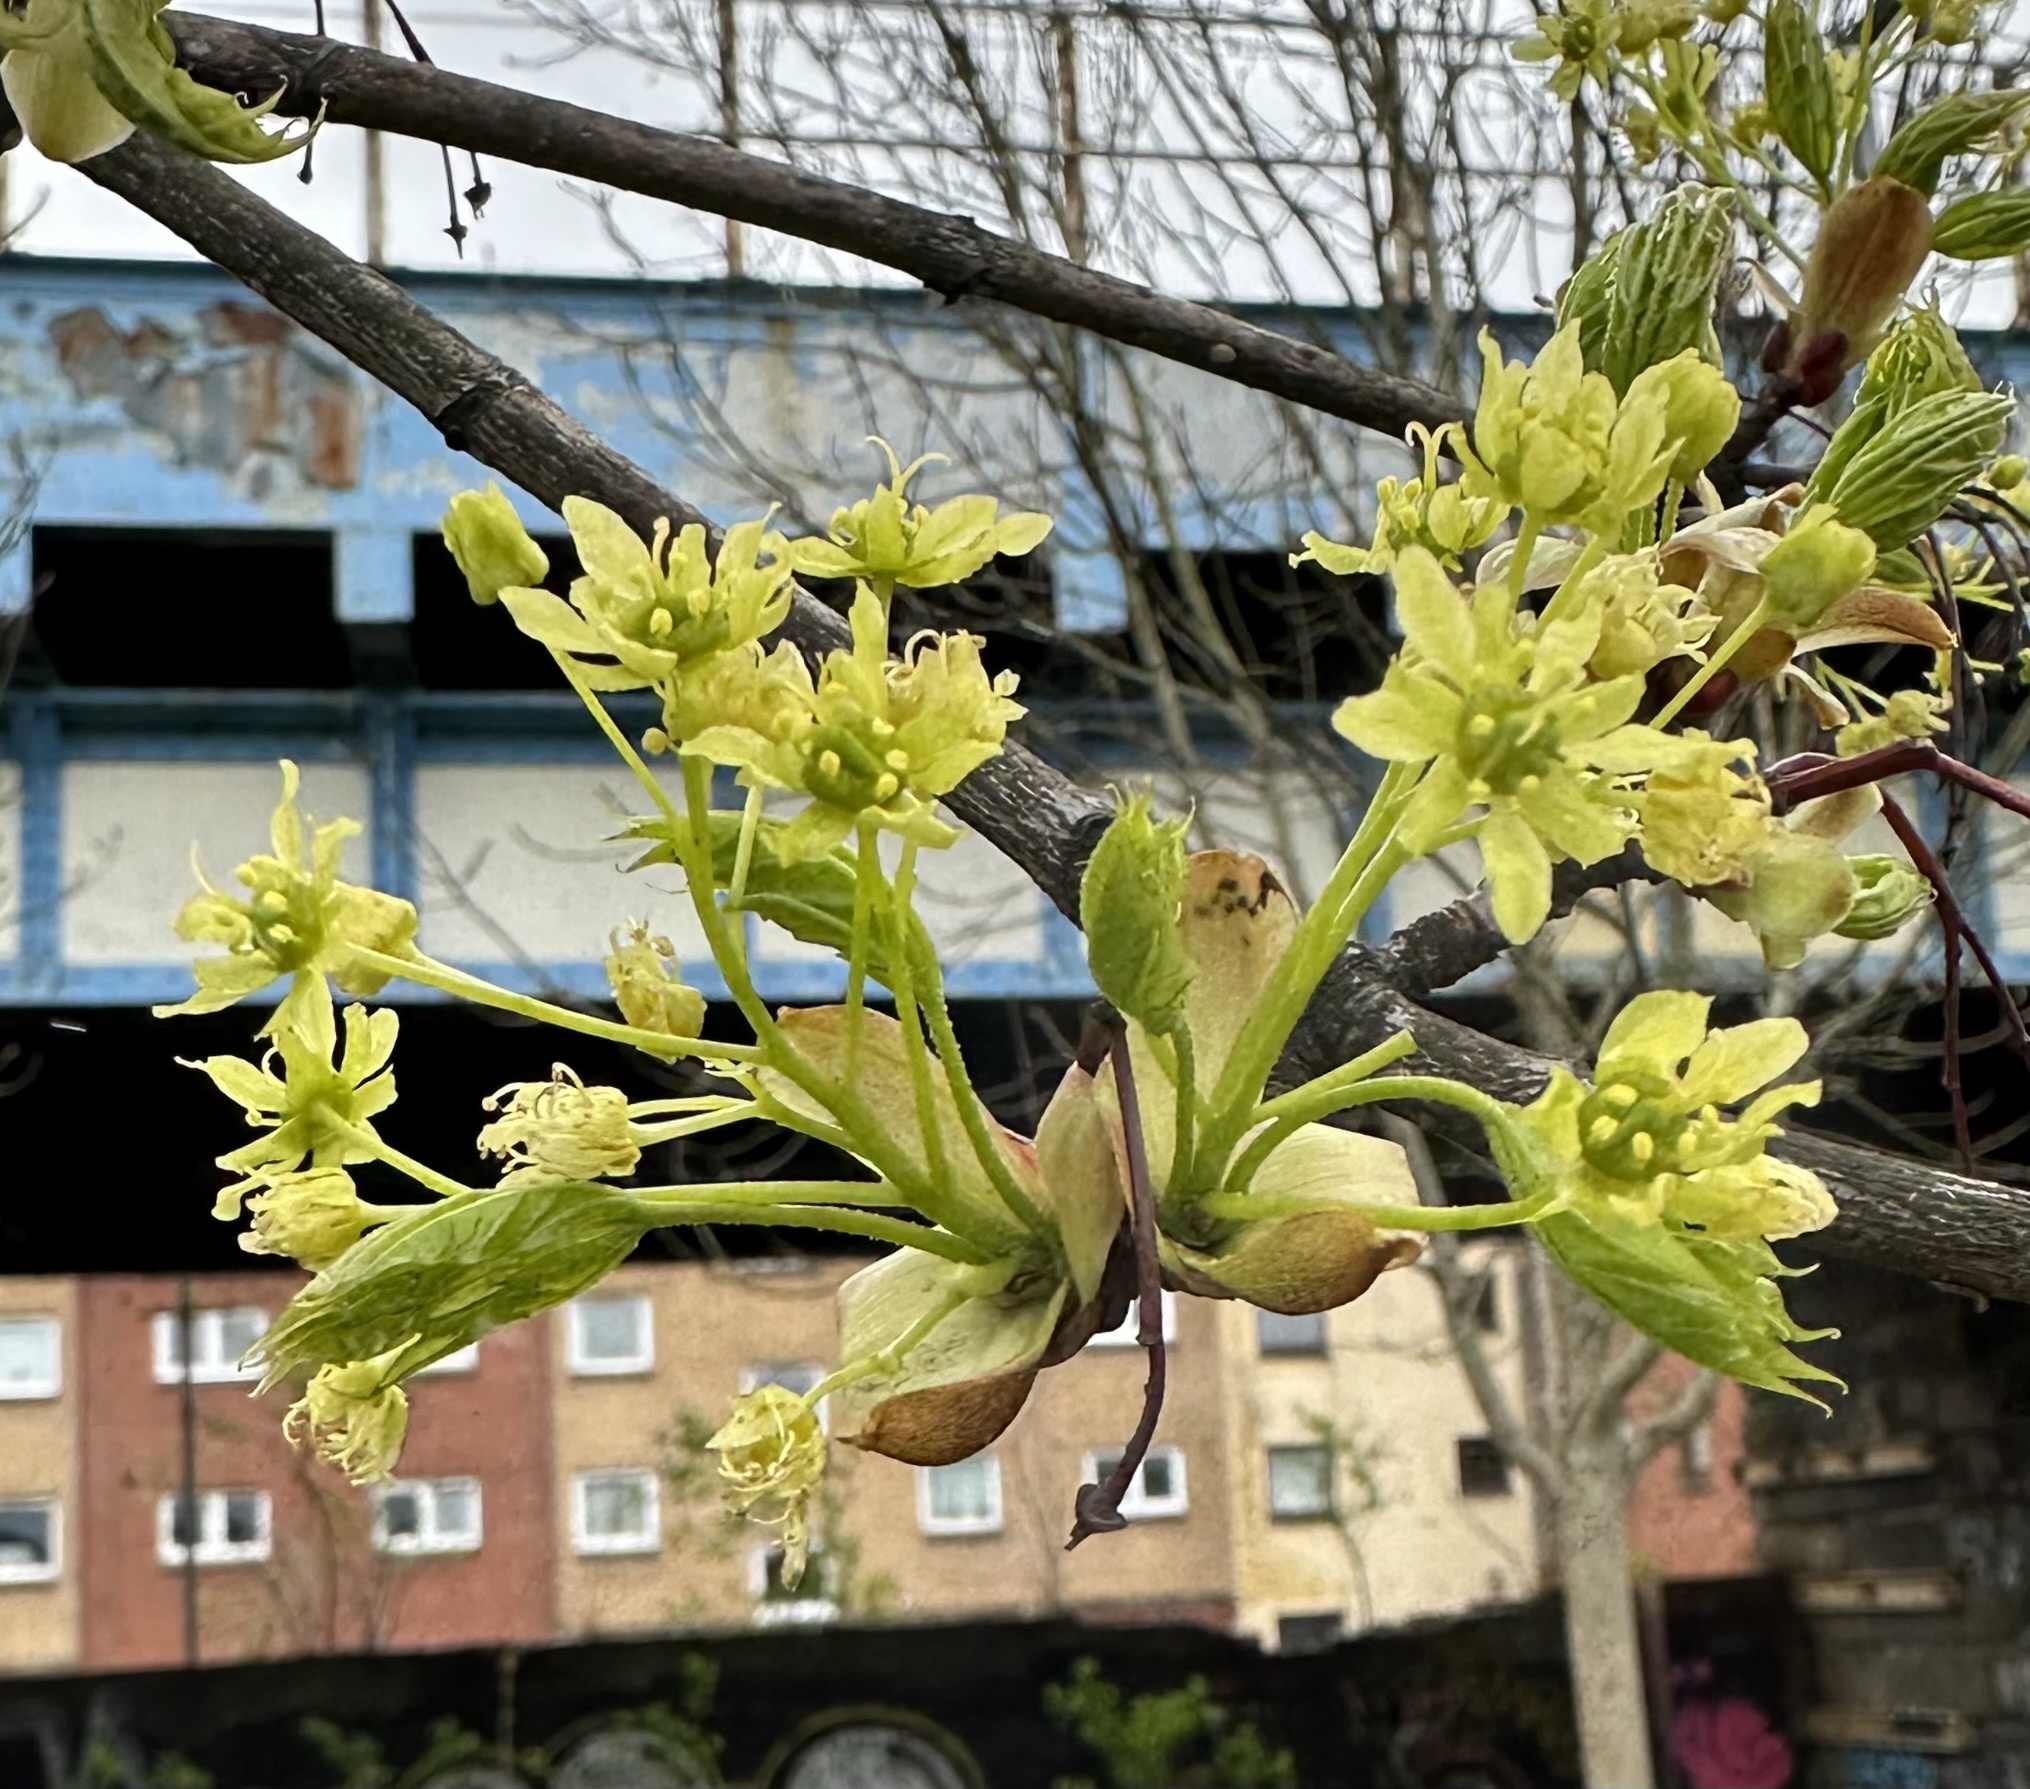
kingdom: Plantae
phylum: Tracheophyta
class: Magnoliopsida
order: Sapindales
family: Sapindaceae
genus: Acer
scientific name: Acer platanoides
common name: Norway maple
